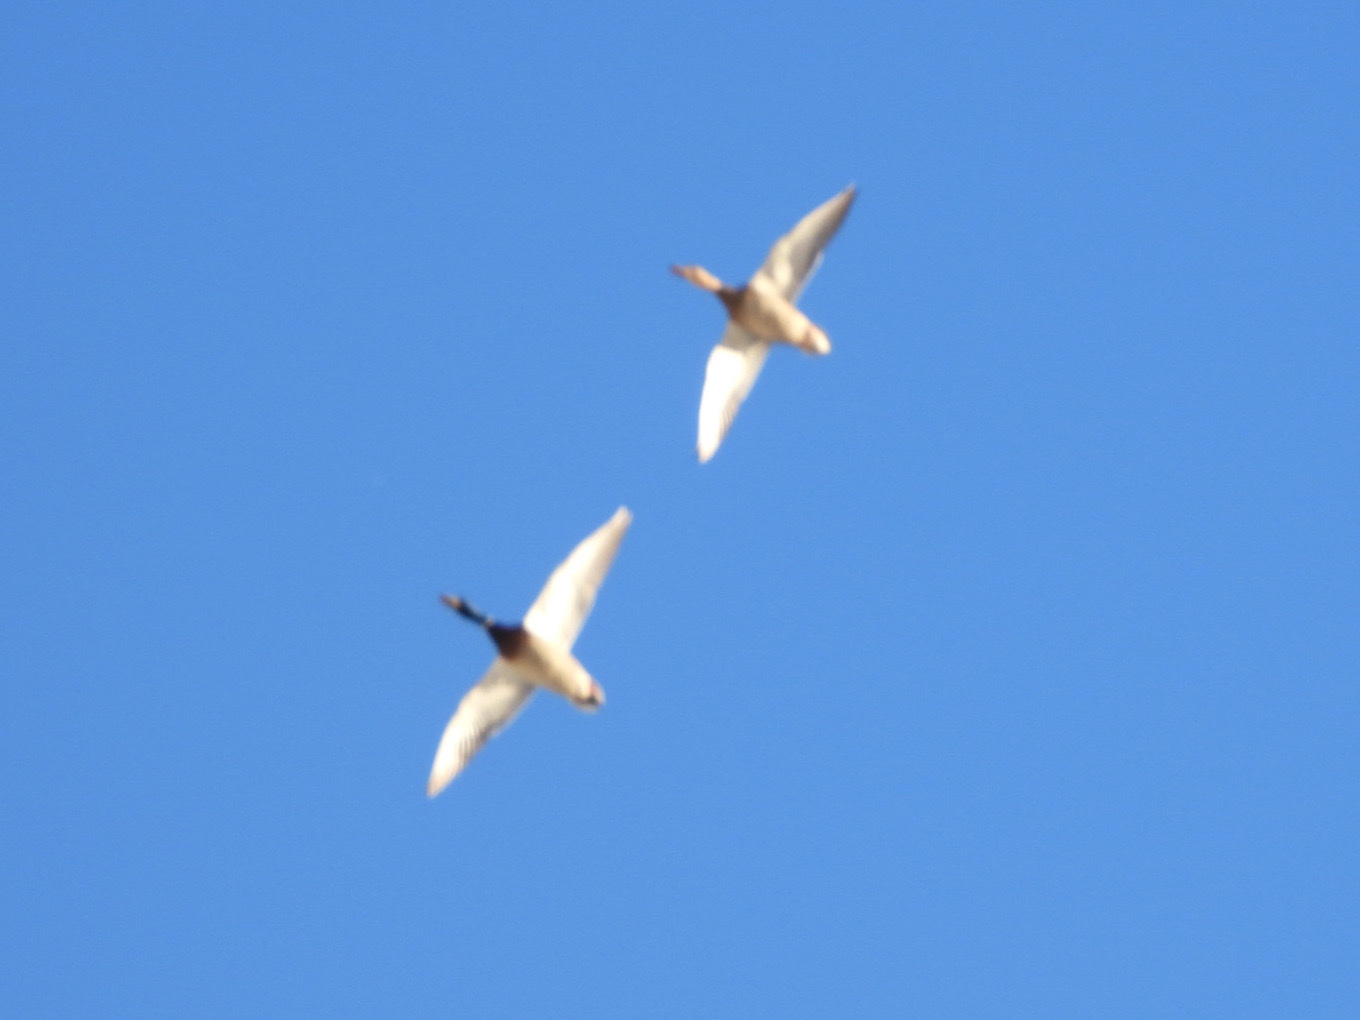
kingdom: Animalia
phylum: Chordata
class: Aves
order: Anseriformes
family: Anatidae
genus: Anas
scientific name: Anas platyrhynchos
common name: Mallard
